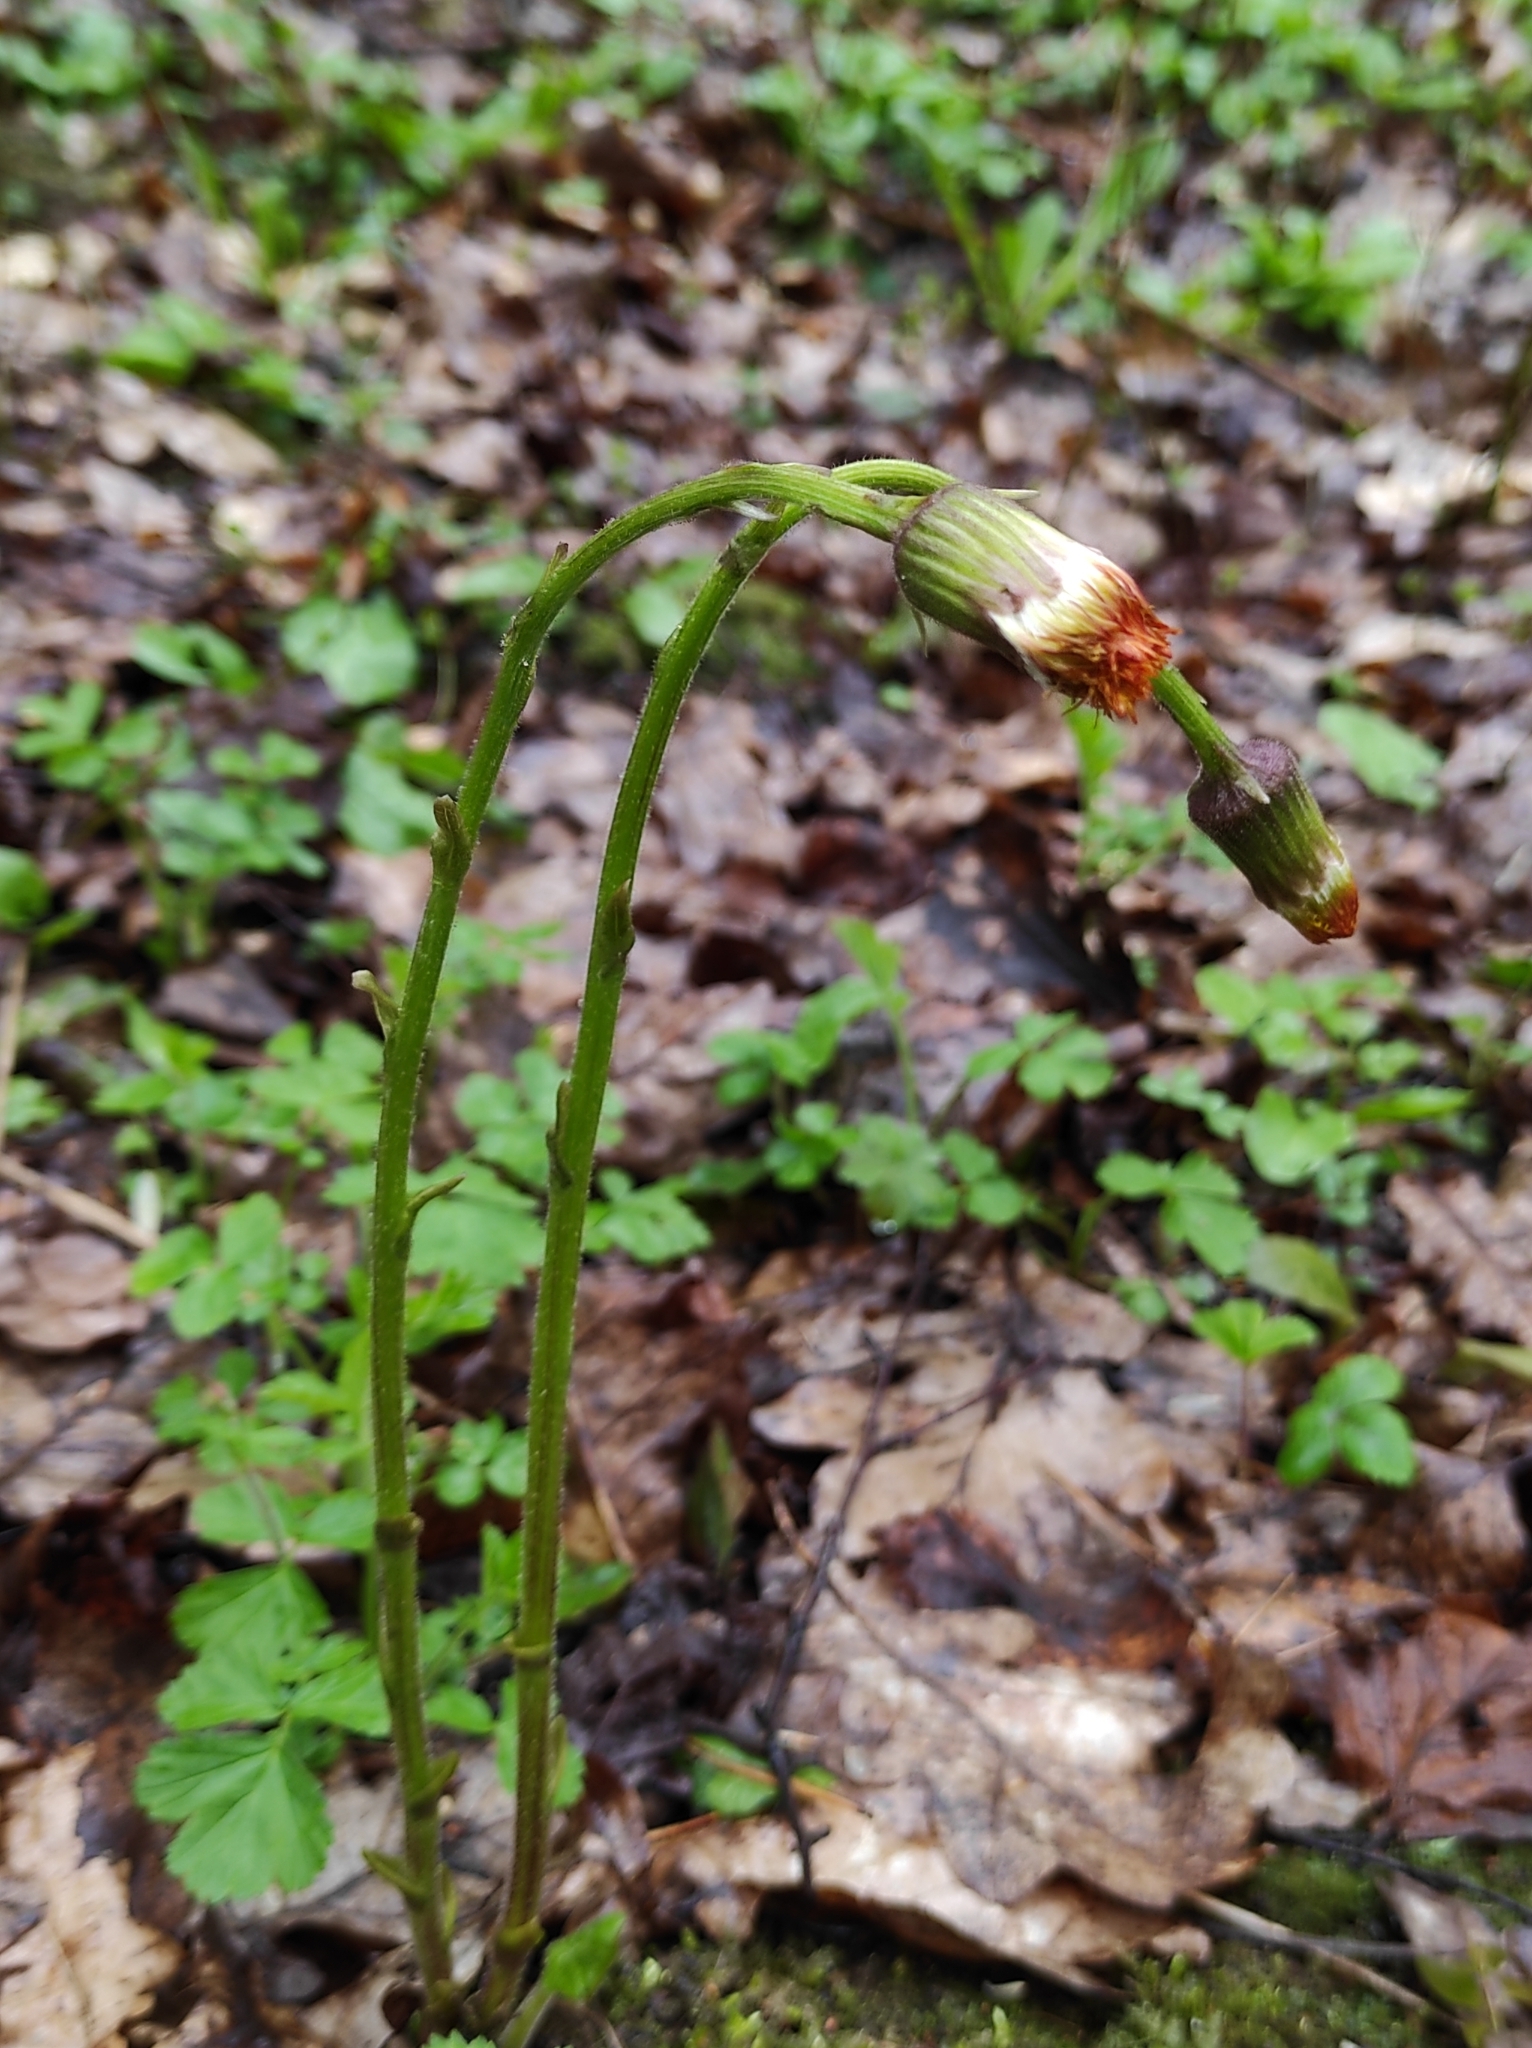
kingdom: Plantae
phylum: Tracheophyta
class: Magnoliopsida
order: Asterales
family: Asteraceae
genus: Tussilago
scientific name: Tussilago farfara
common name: Coltsfoot
